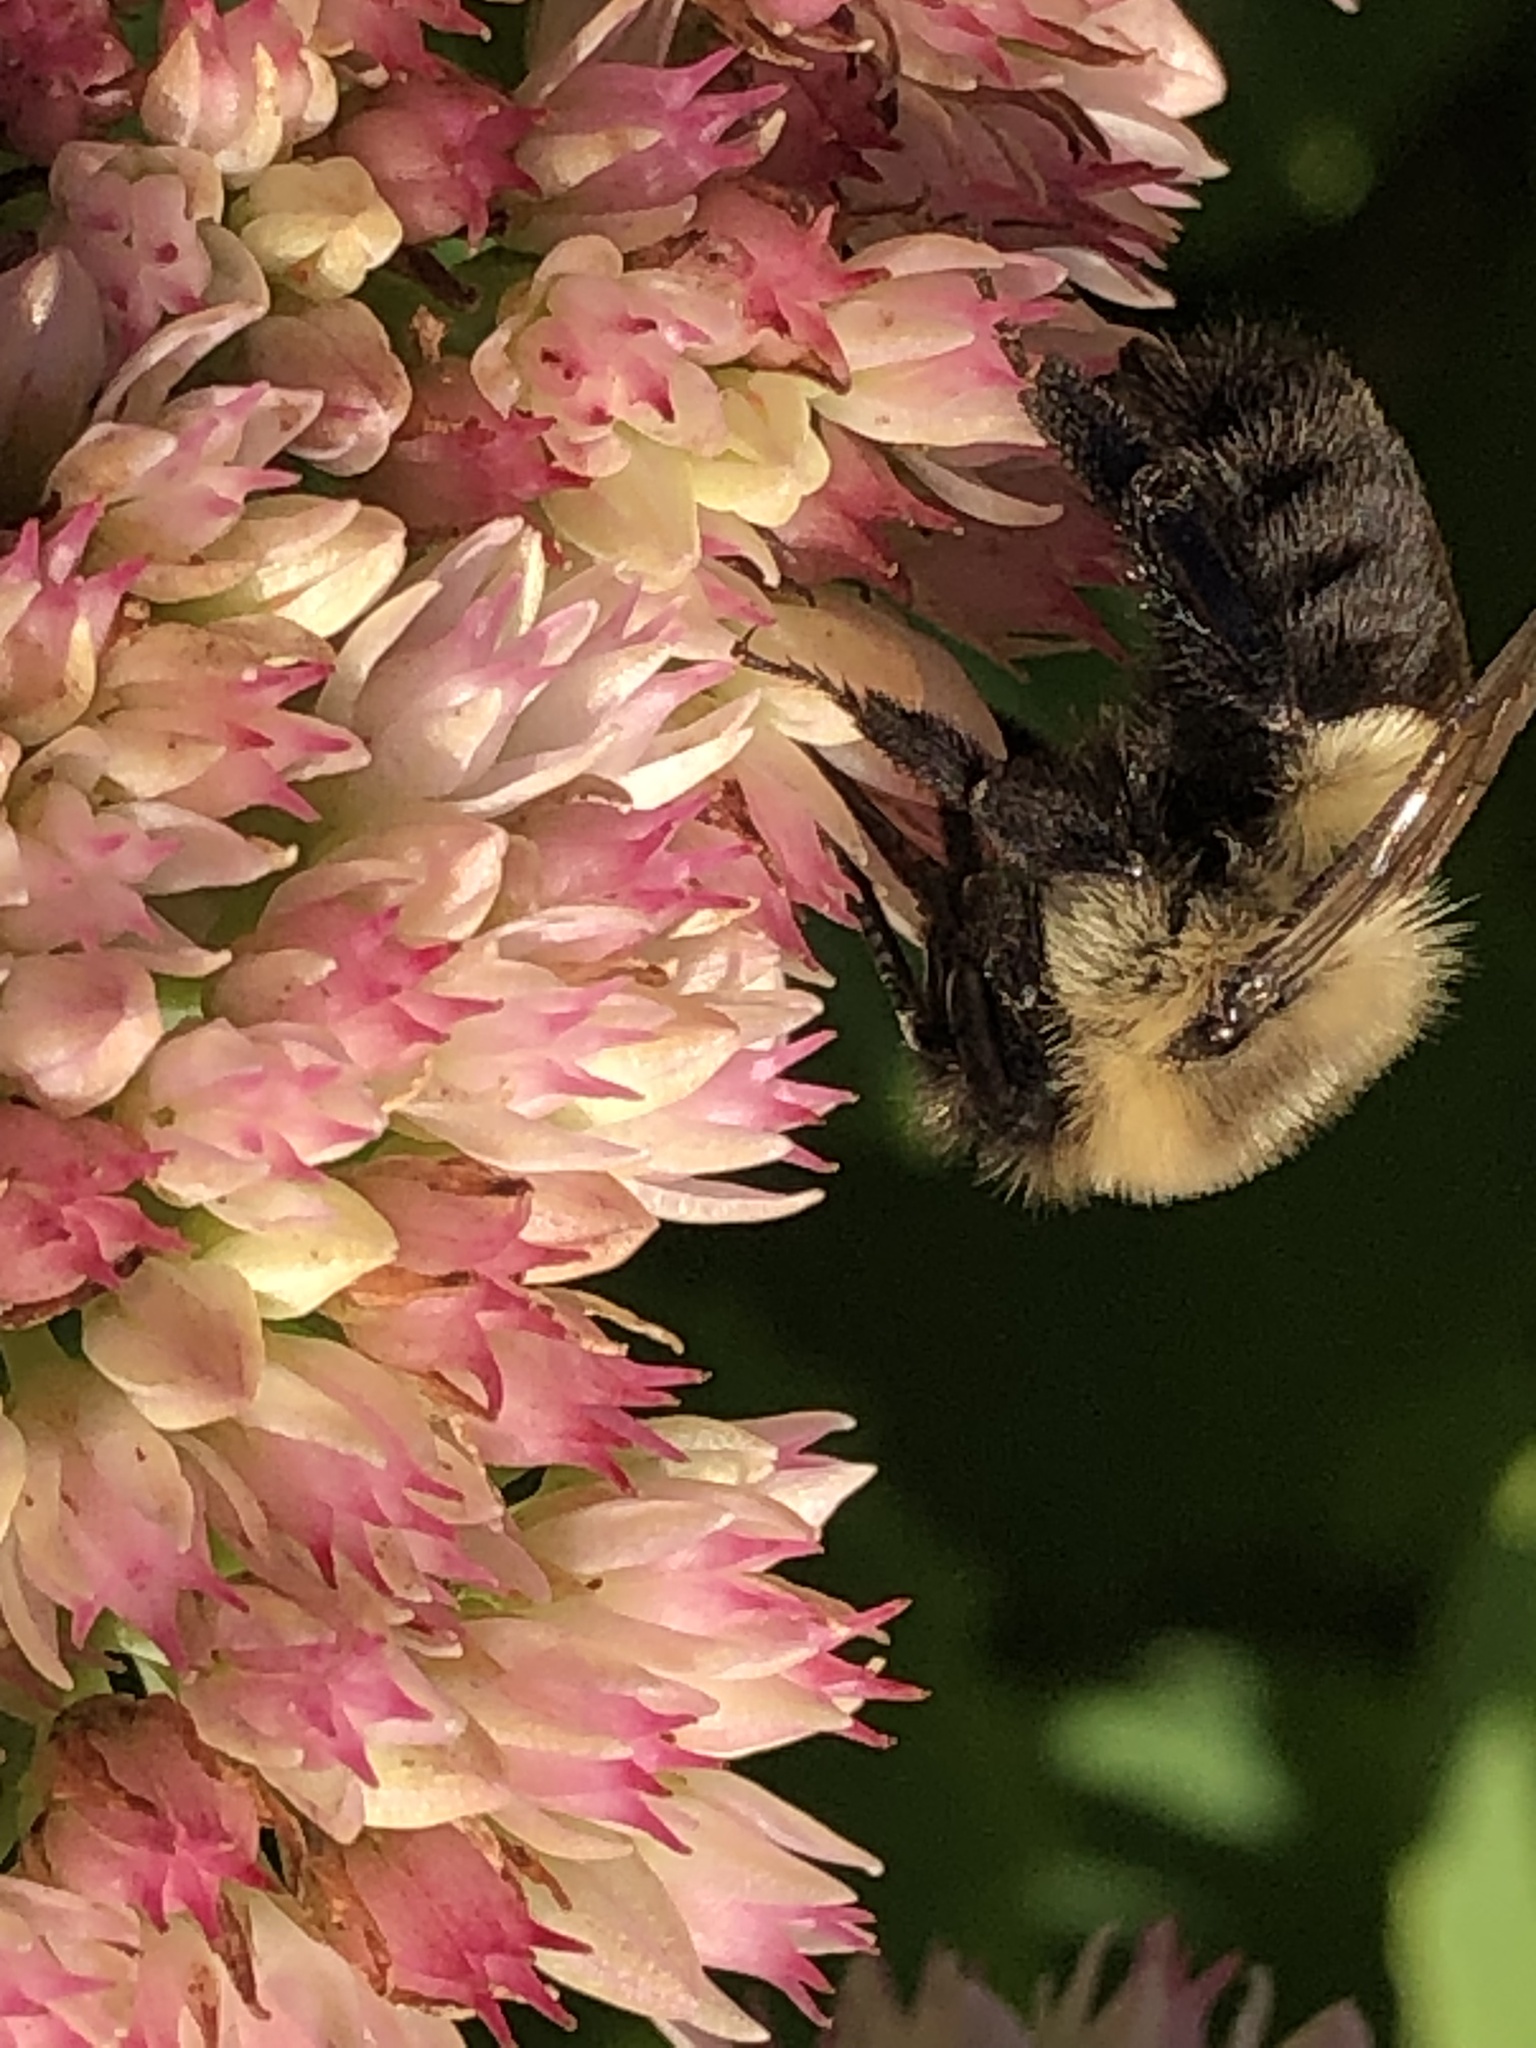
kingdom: Animalia
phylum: Arthropoda
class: Insecta
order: Hymenoptera
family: Apidae
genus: Bombus
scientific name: Bombus impatiens
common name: Common eastern bumble bee
